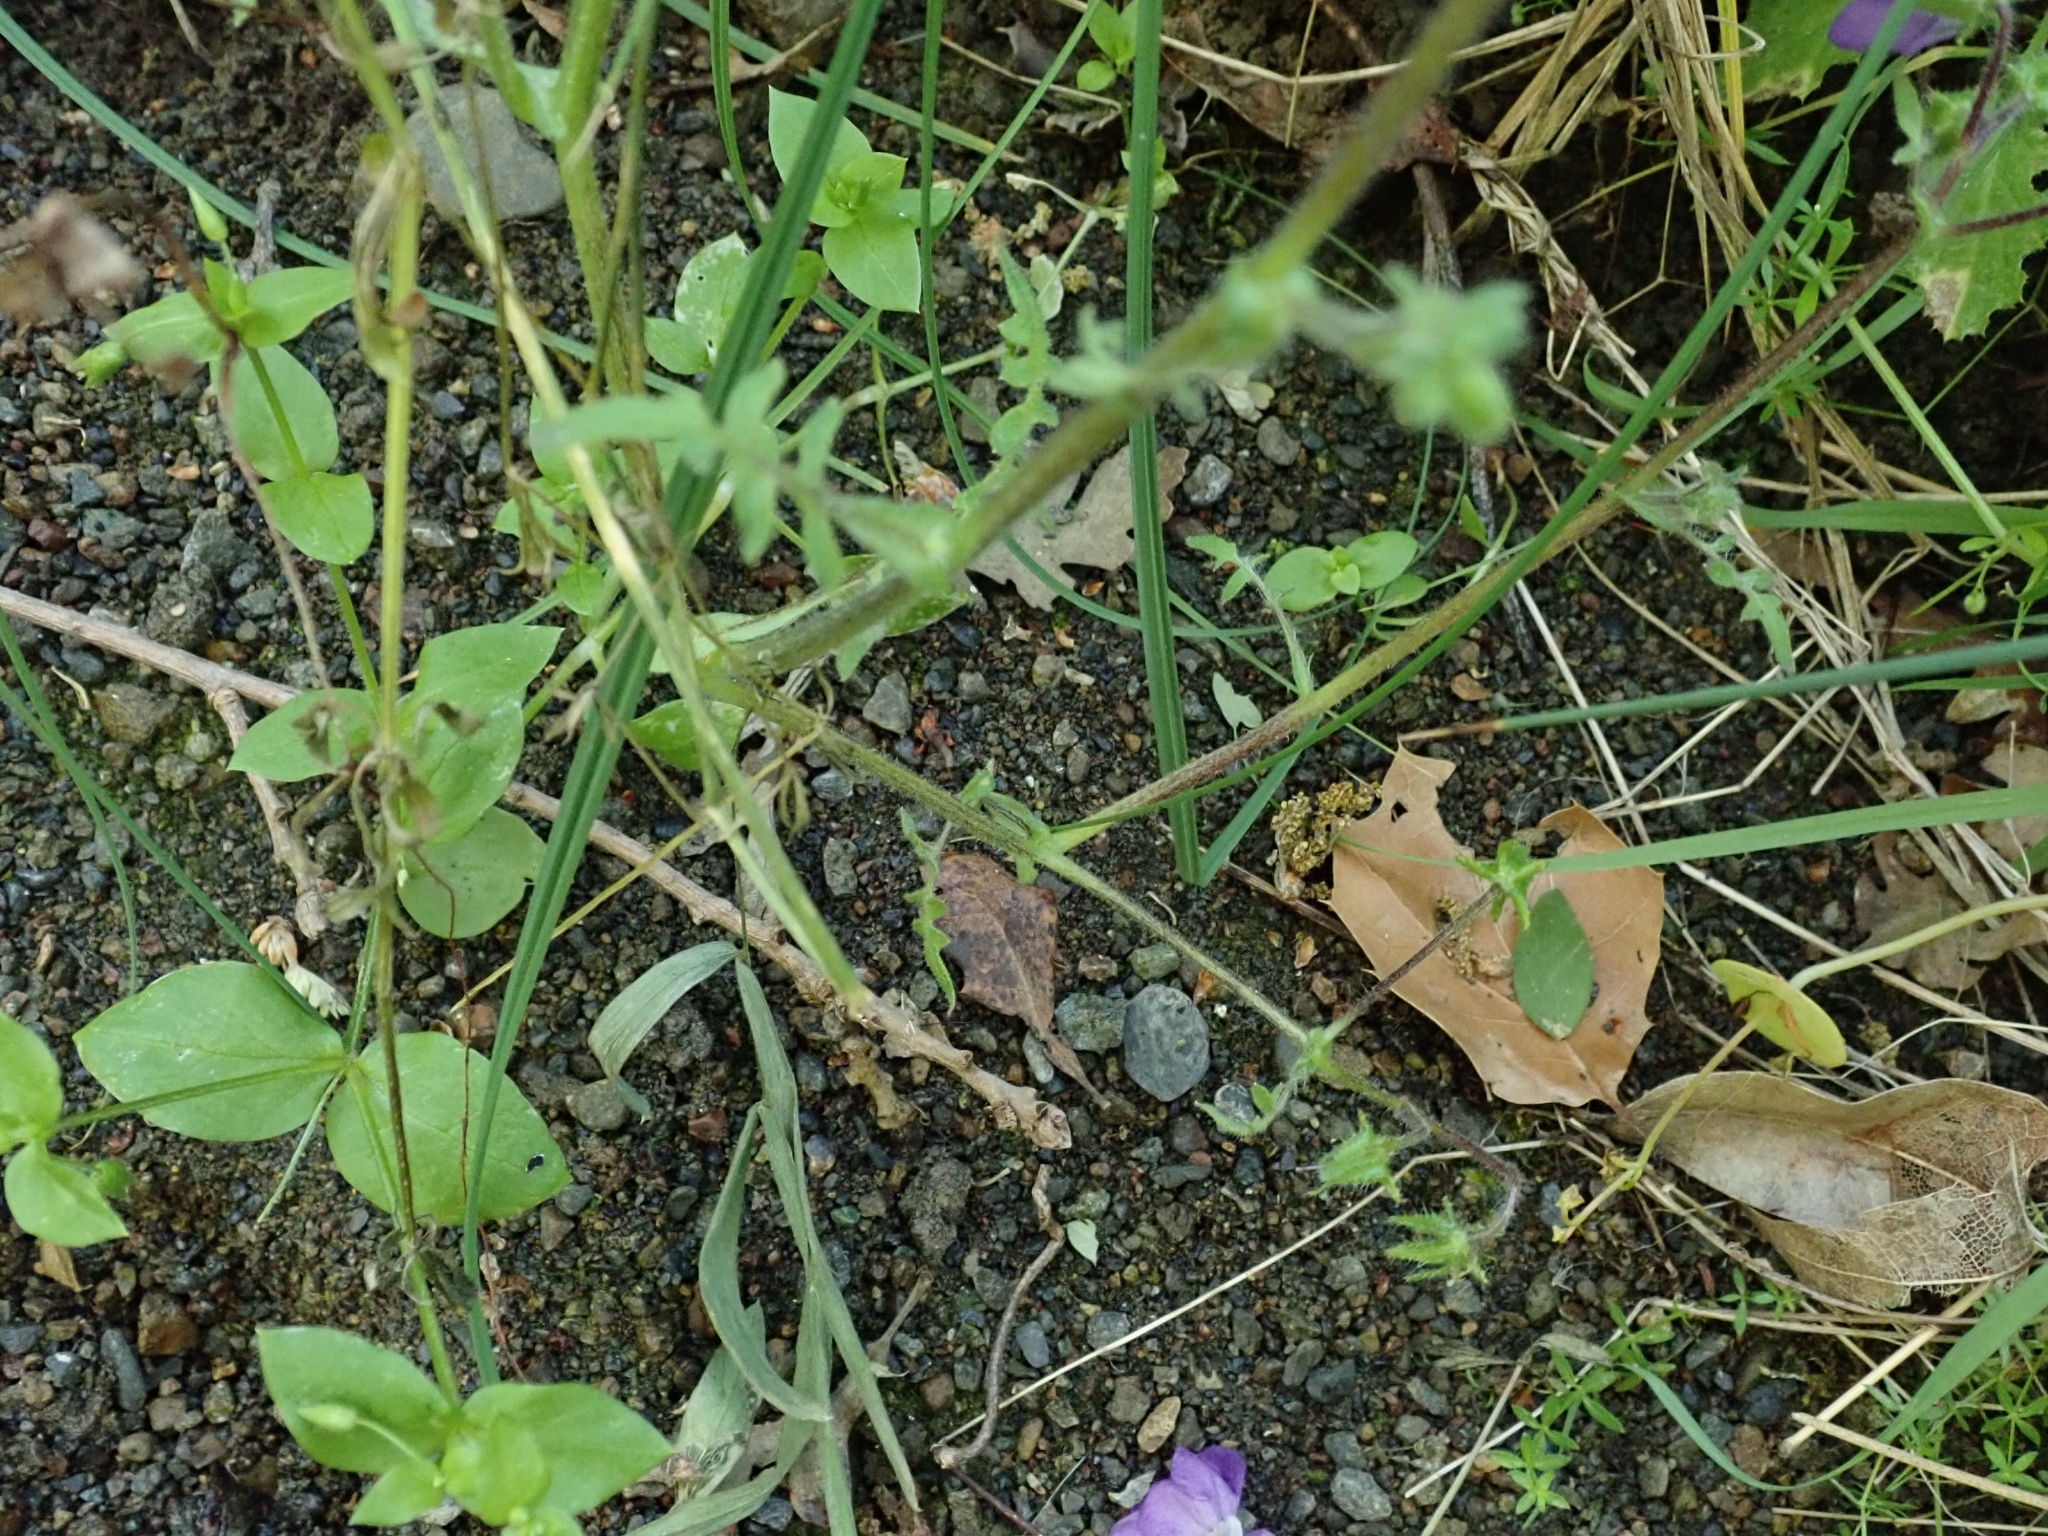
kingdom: Plantae
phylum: Tracheophyta
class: Magnoliopsida
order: Boraginales
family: Hydrophyllaceae
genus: Pholistoma
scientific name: Pholistoma auritum
